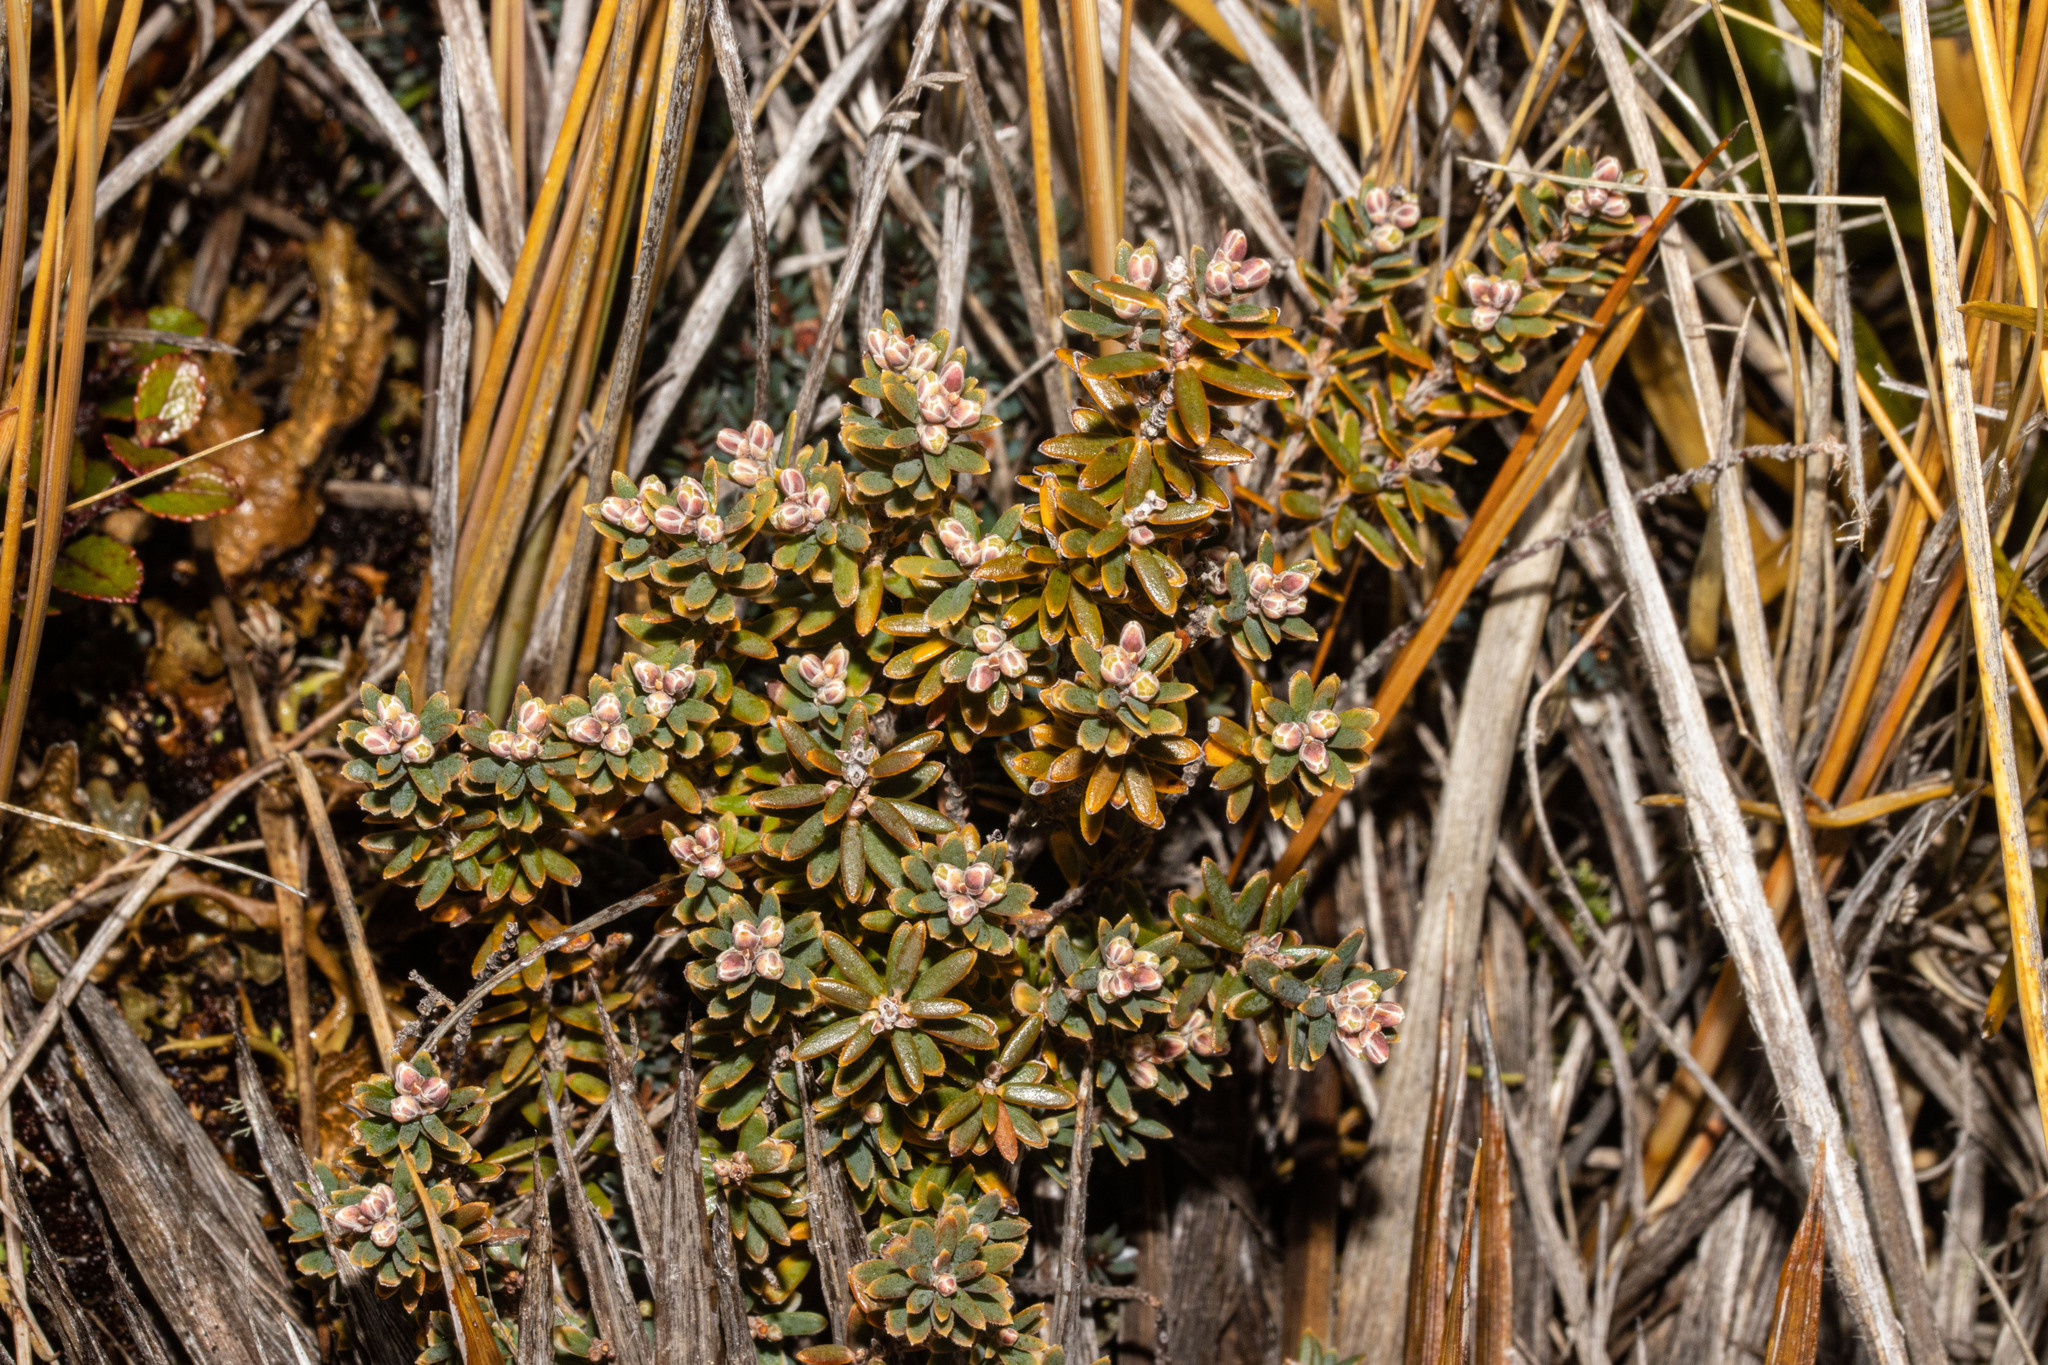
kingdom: Plantae
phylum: Tracheophyta
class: Magnoliopsida
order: Ericales
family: Ericaceae
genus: Acrothamnus
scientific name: Acrothamnus colensoi
